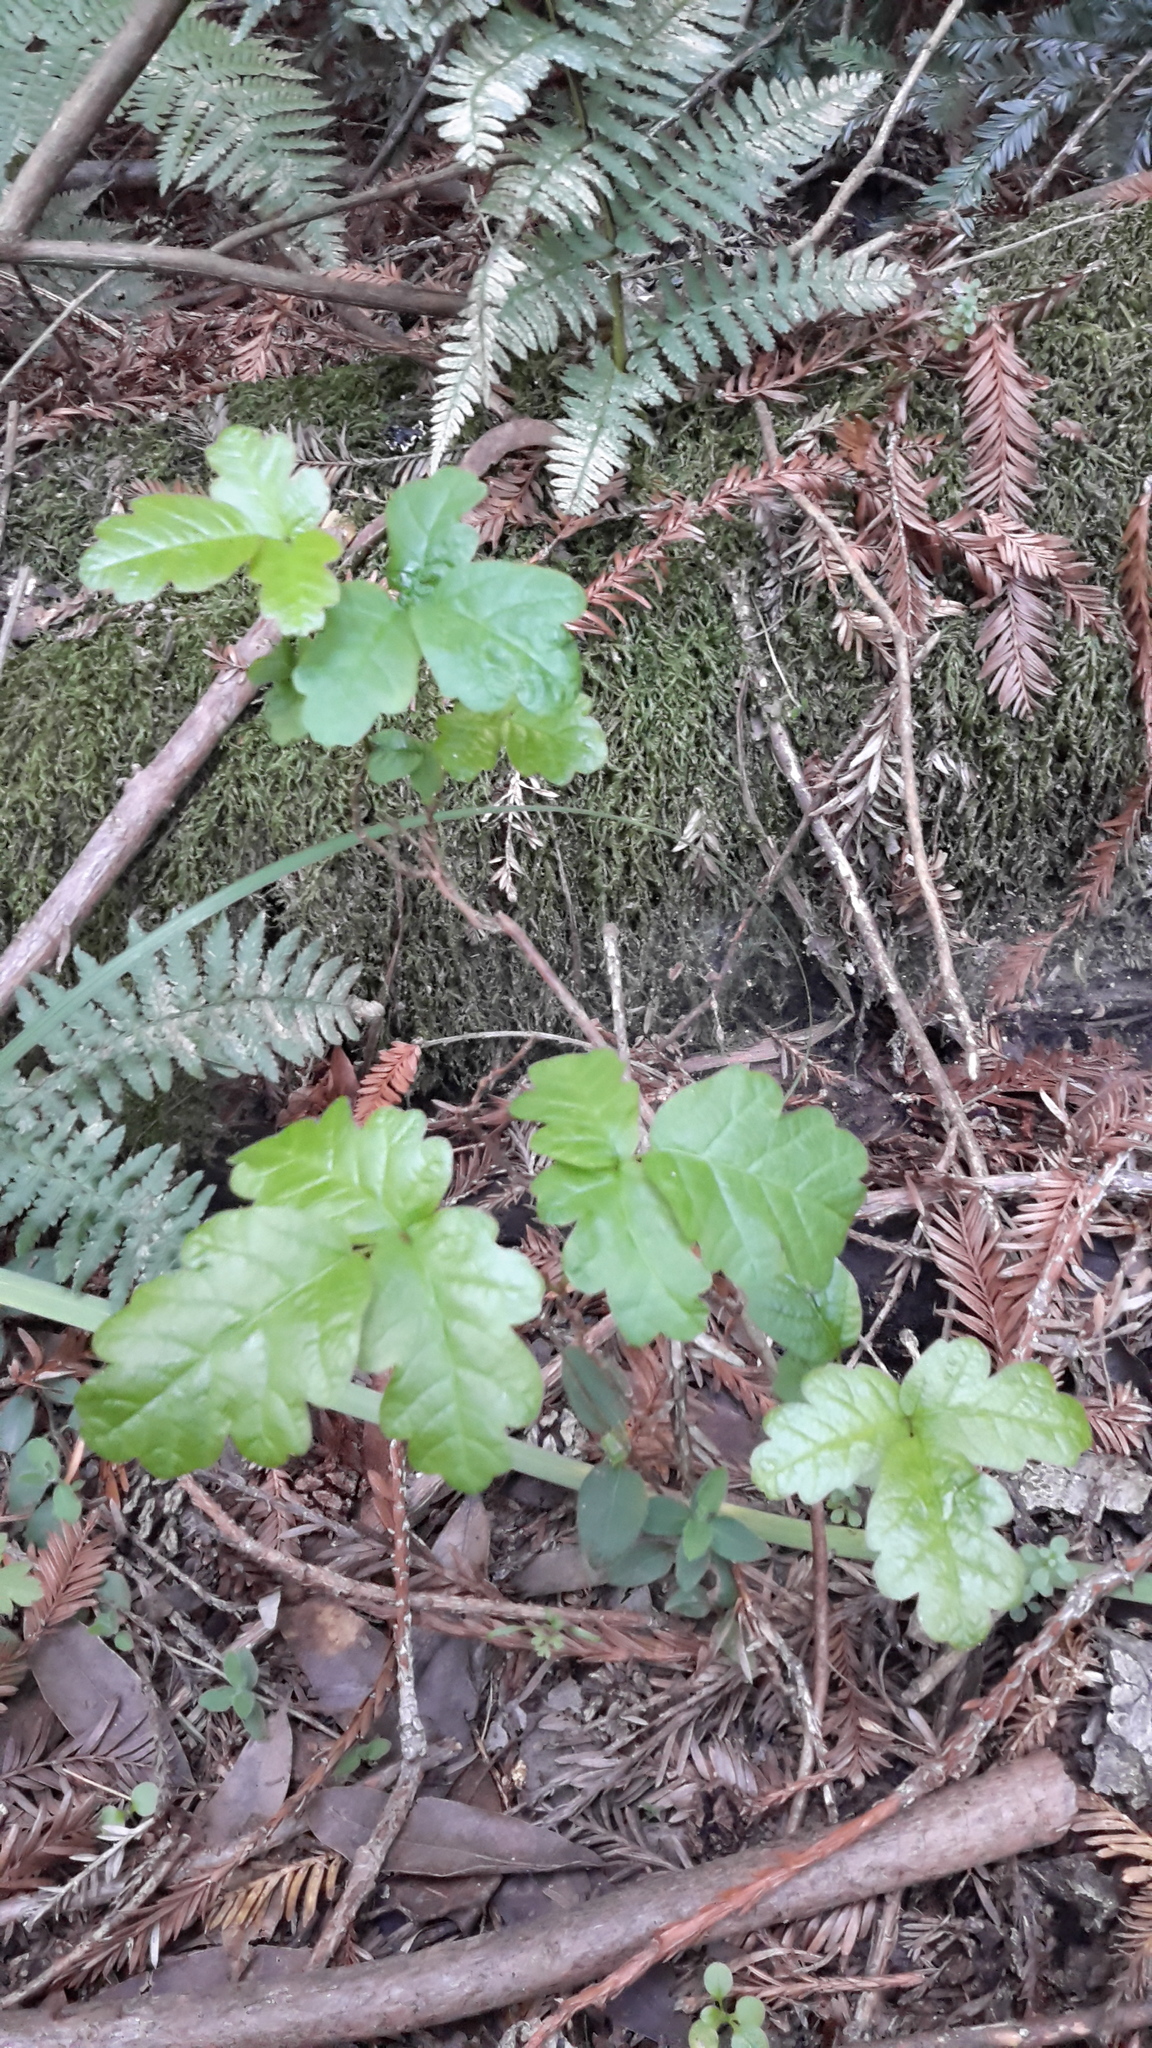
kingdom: Plantae
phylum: Tracheophyta
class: Magnoliopsida
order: Sapindales
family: Anacardiaceae
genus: Toxicodendron
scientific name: Toxicodendron diversilobum
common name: Pacific poison-oak
